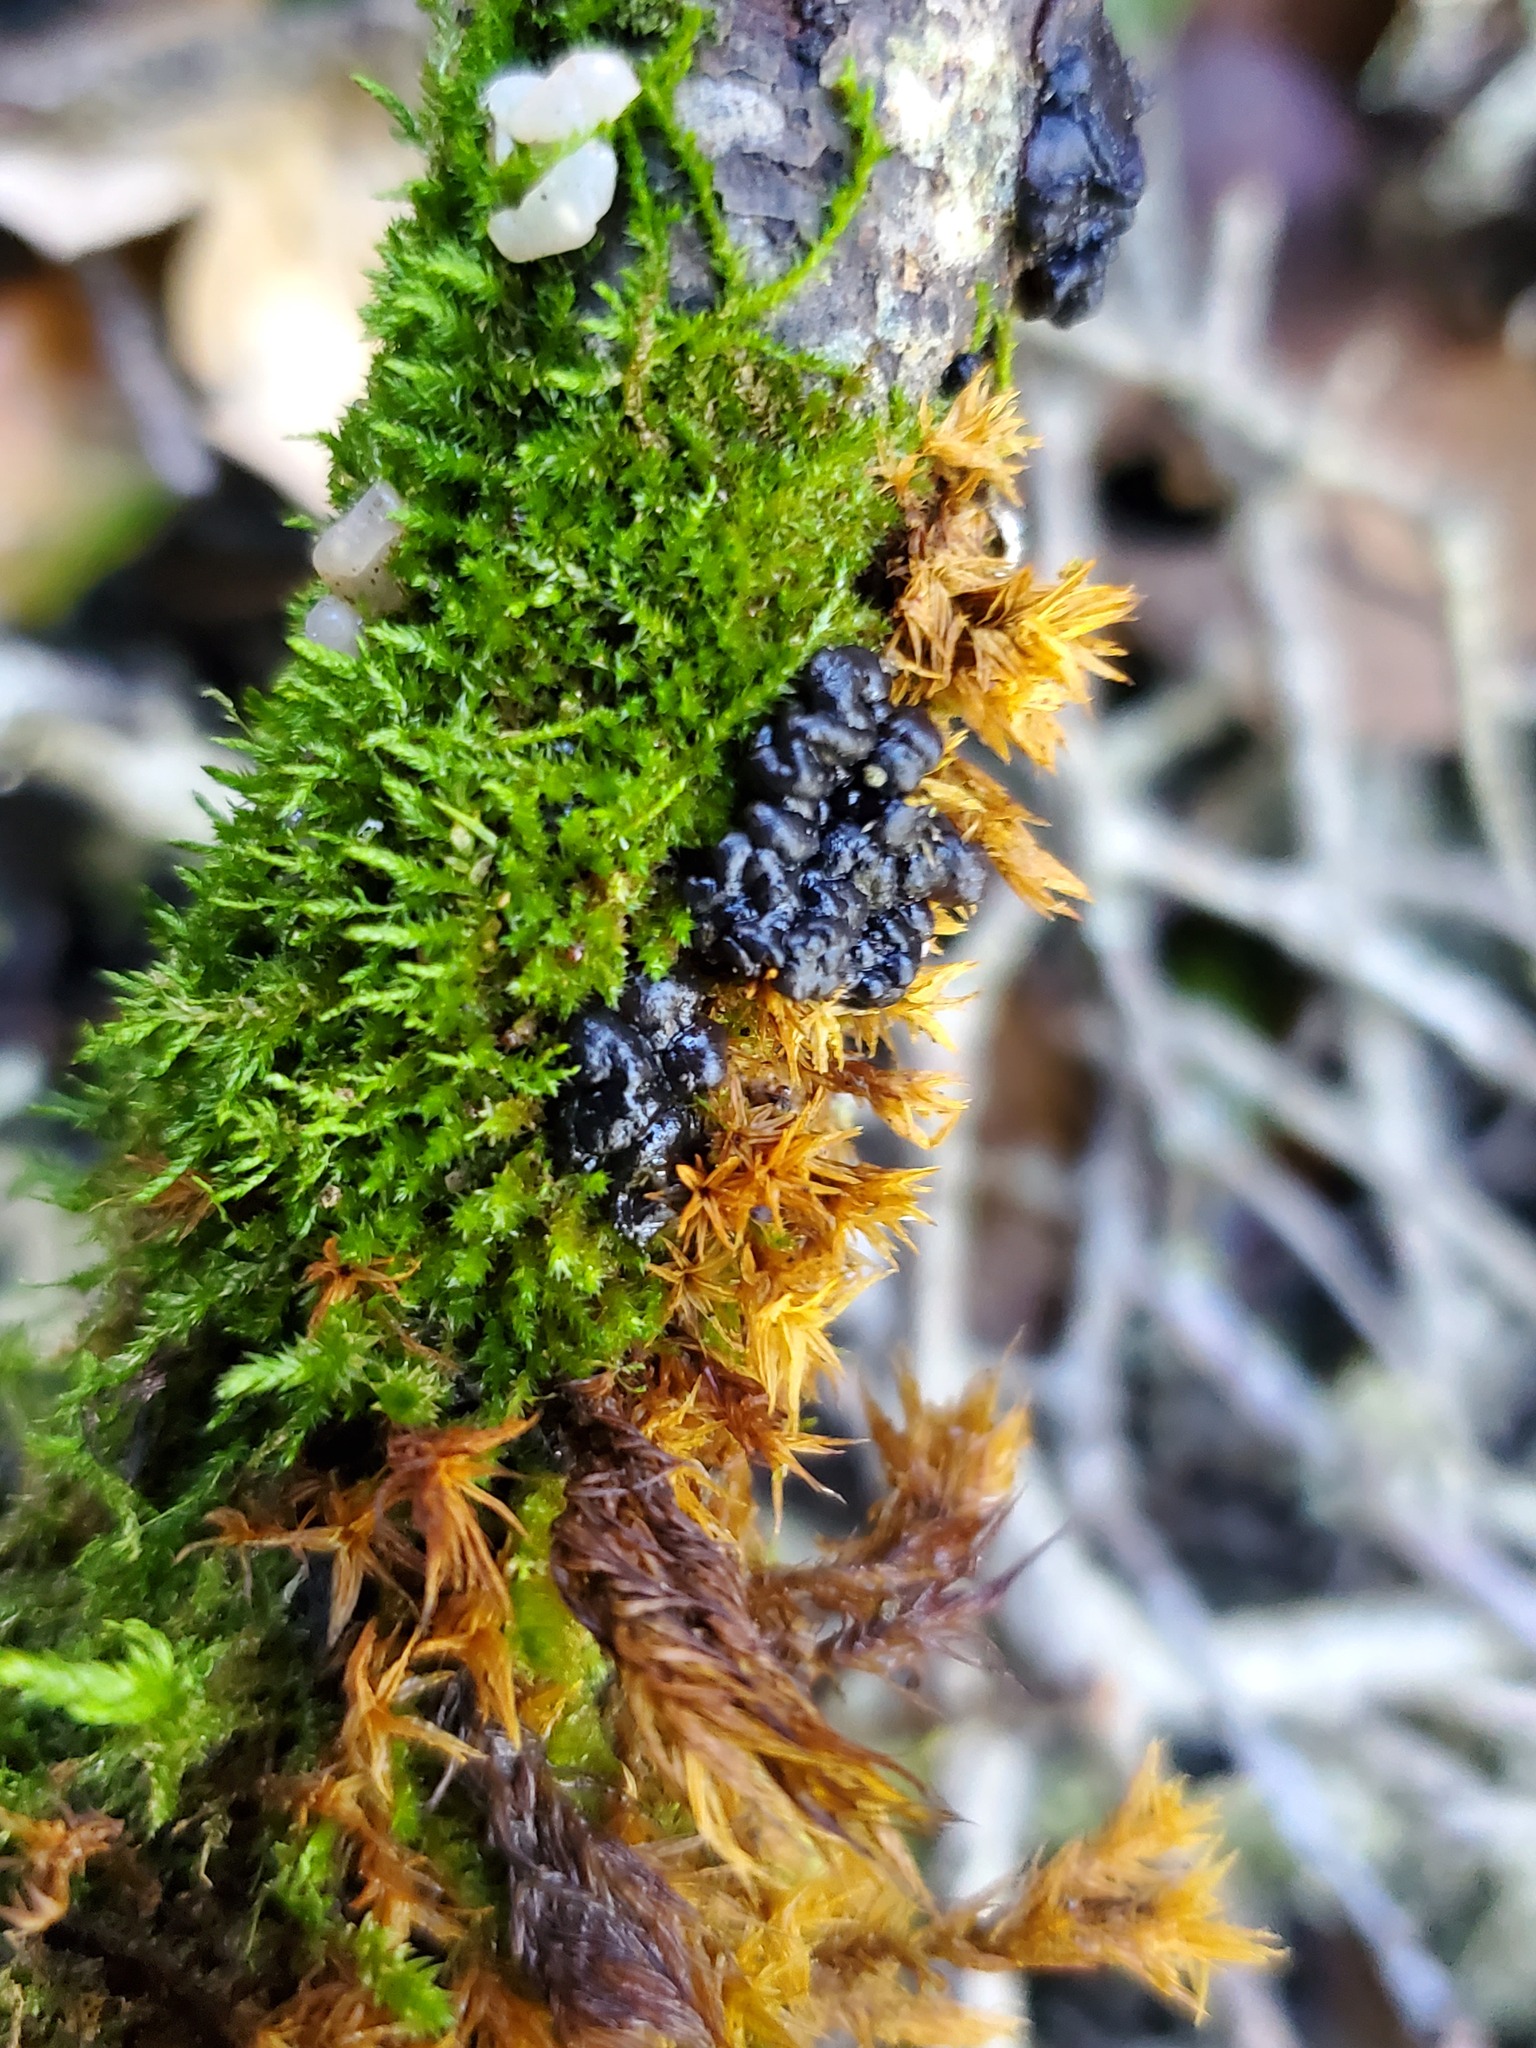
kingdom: Fungi
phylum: Basidiomycota
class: Agaricomycetes
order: Auriculariales
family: Auriculariaceae
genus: Exidia
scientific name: Exidia glandulosa
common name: Witches' butter
